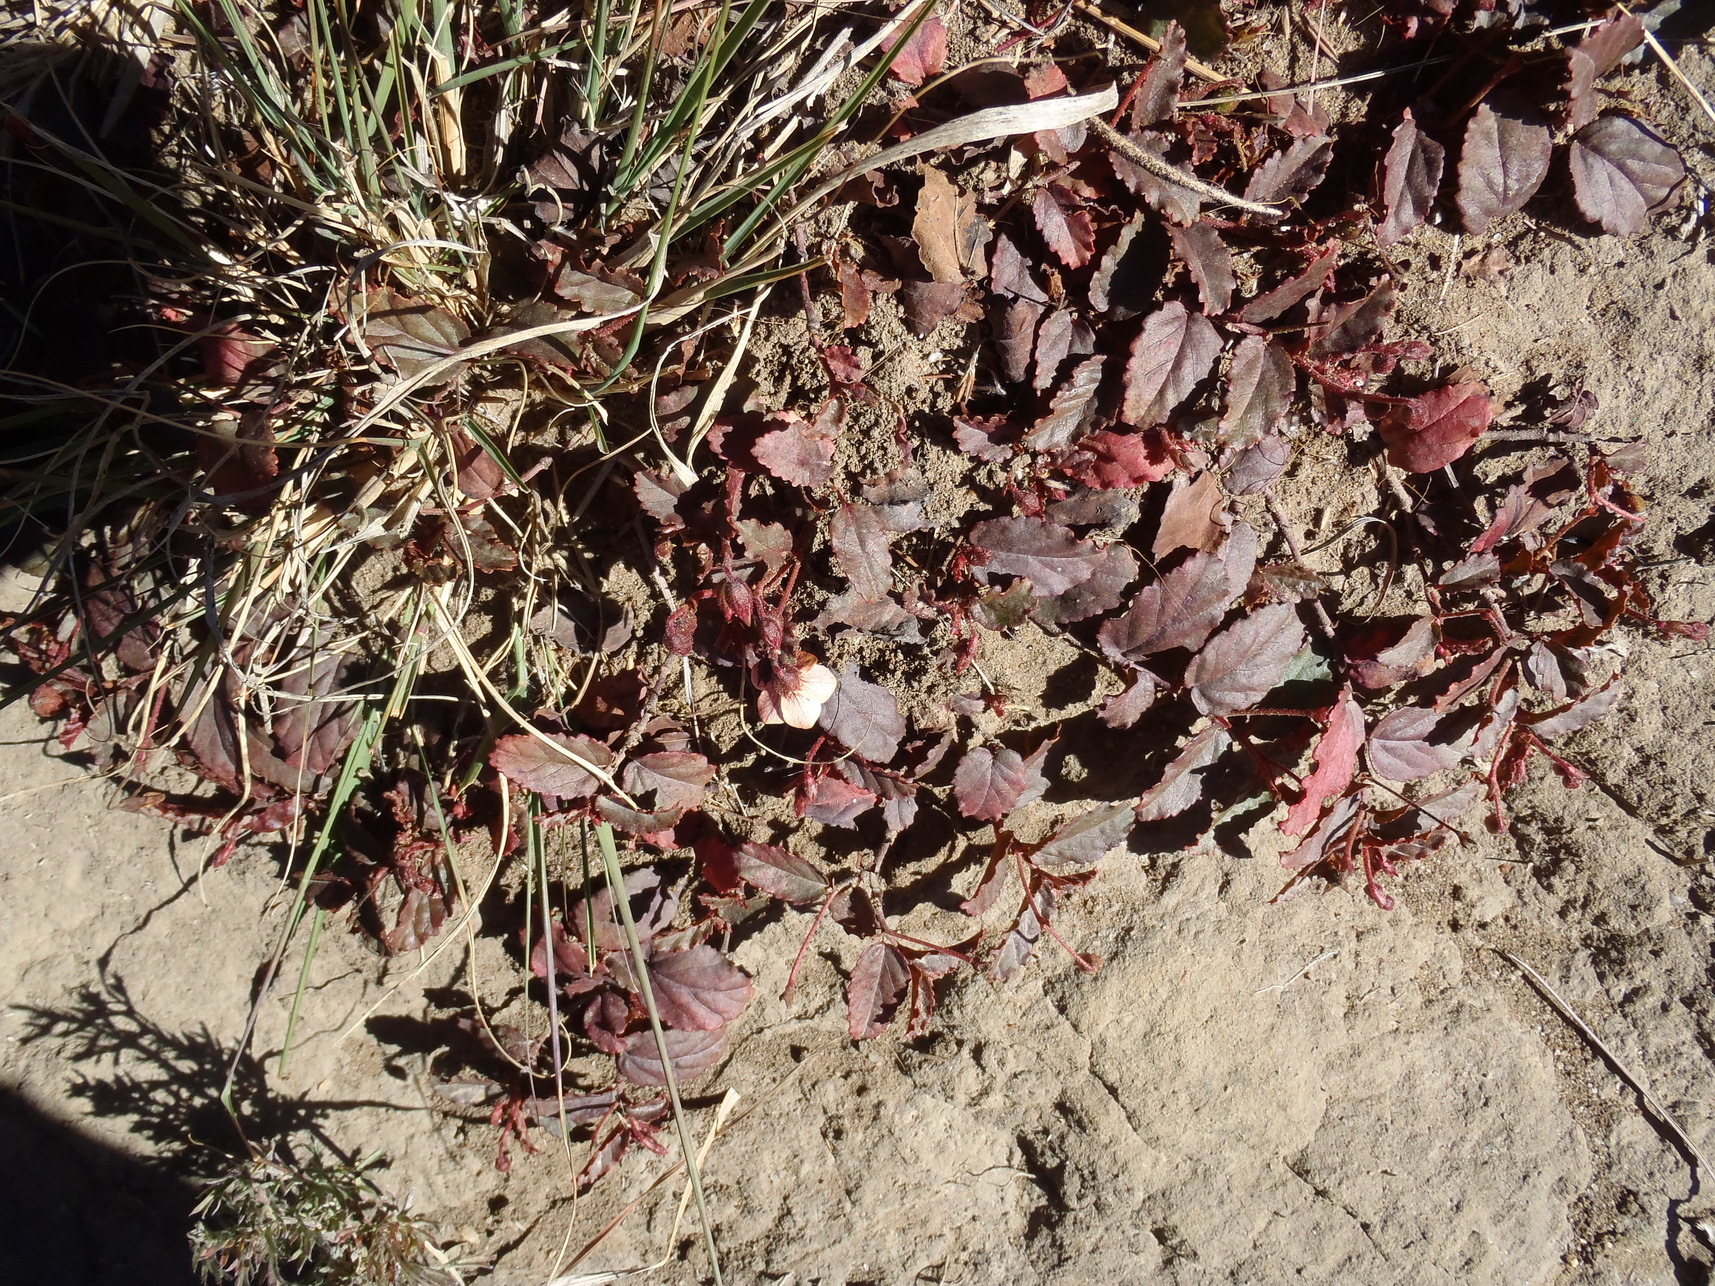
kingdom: Plantae
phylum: Tracheophyta
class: Magnoliopsida
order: Malvales
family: Malvaceae
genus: Hermannia
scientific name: Hermannia depressa
